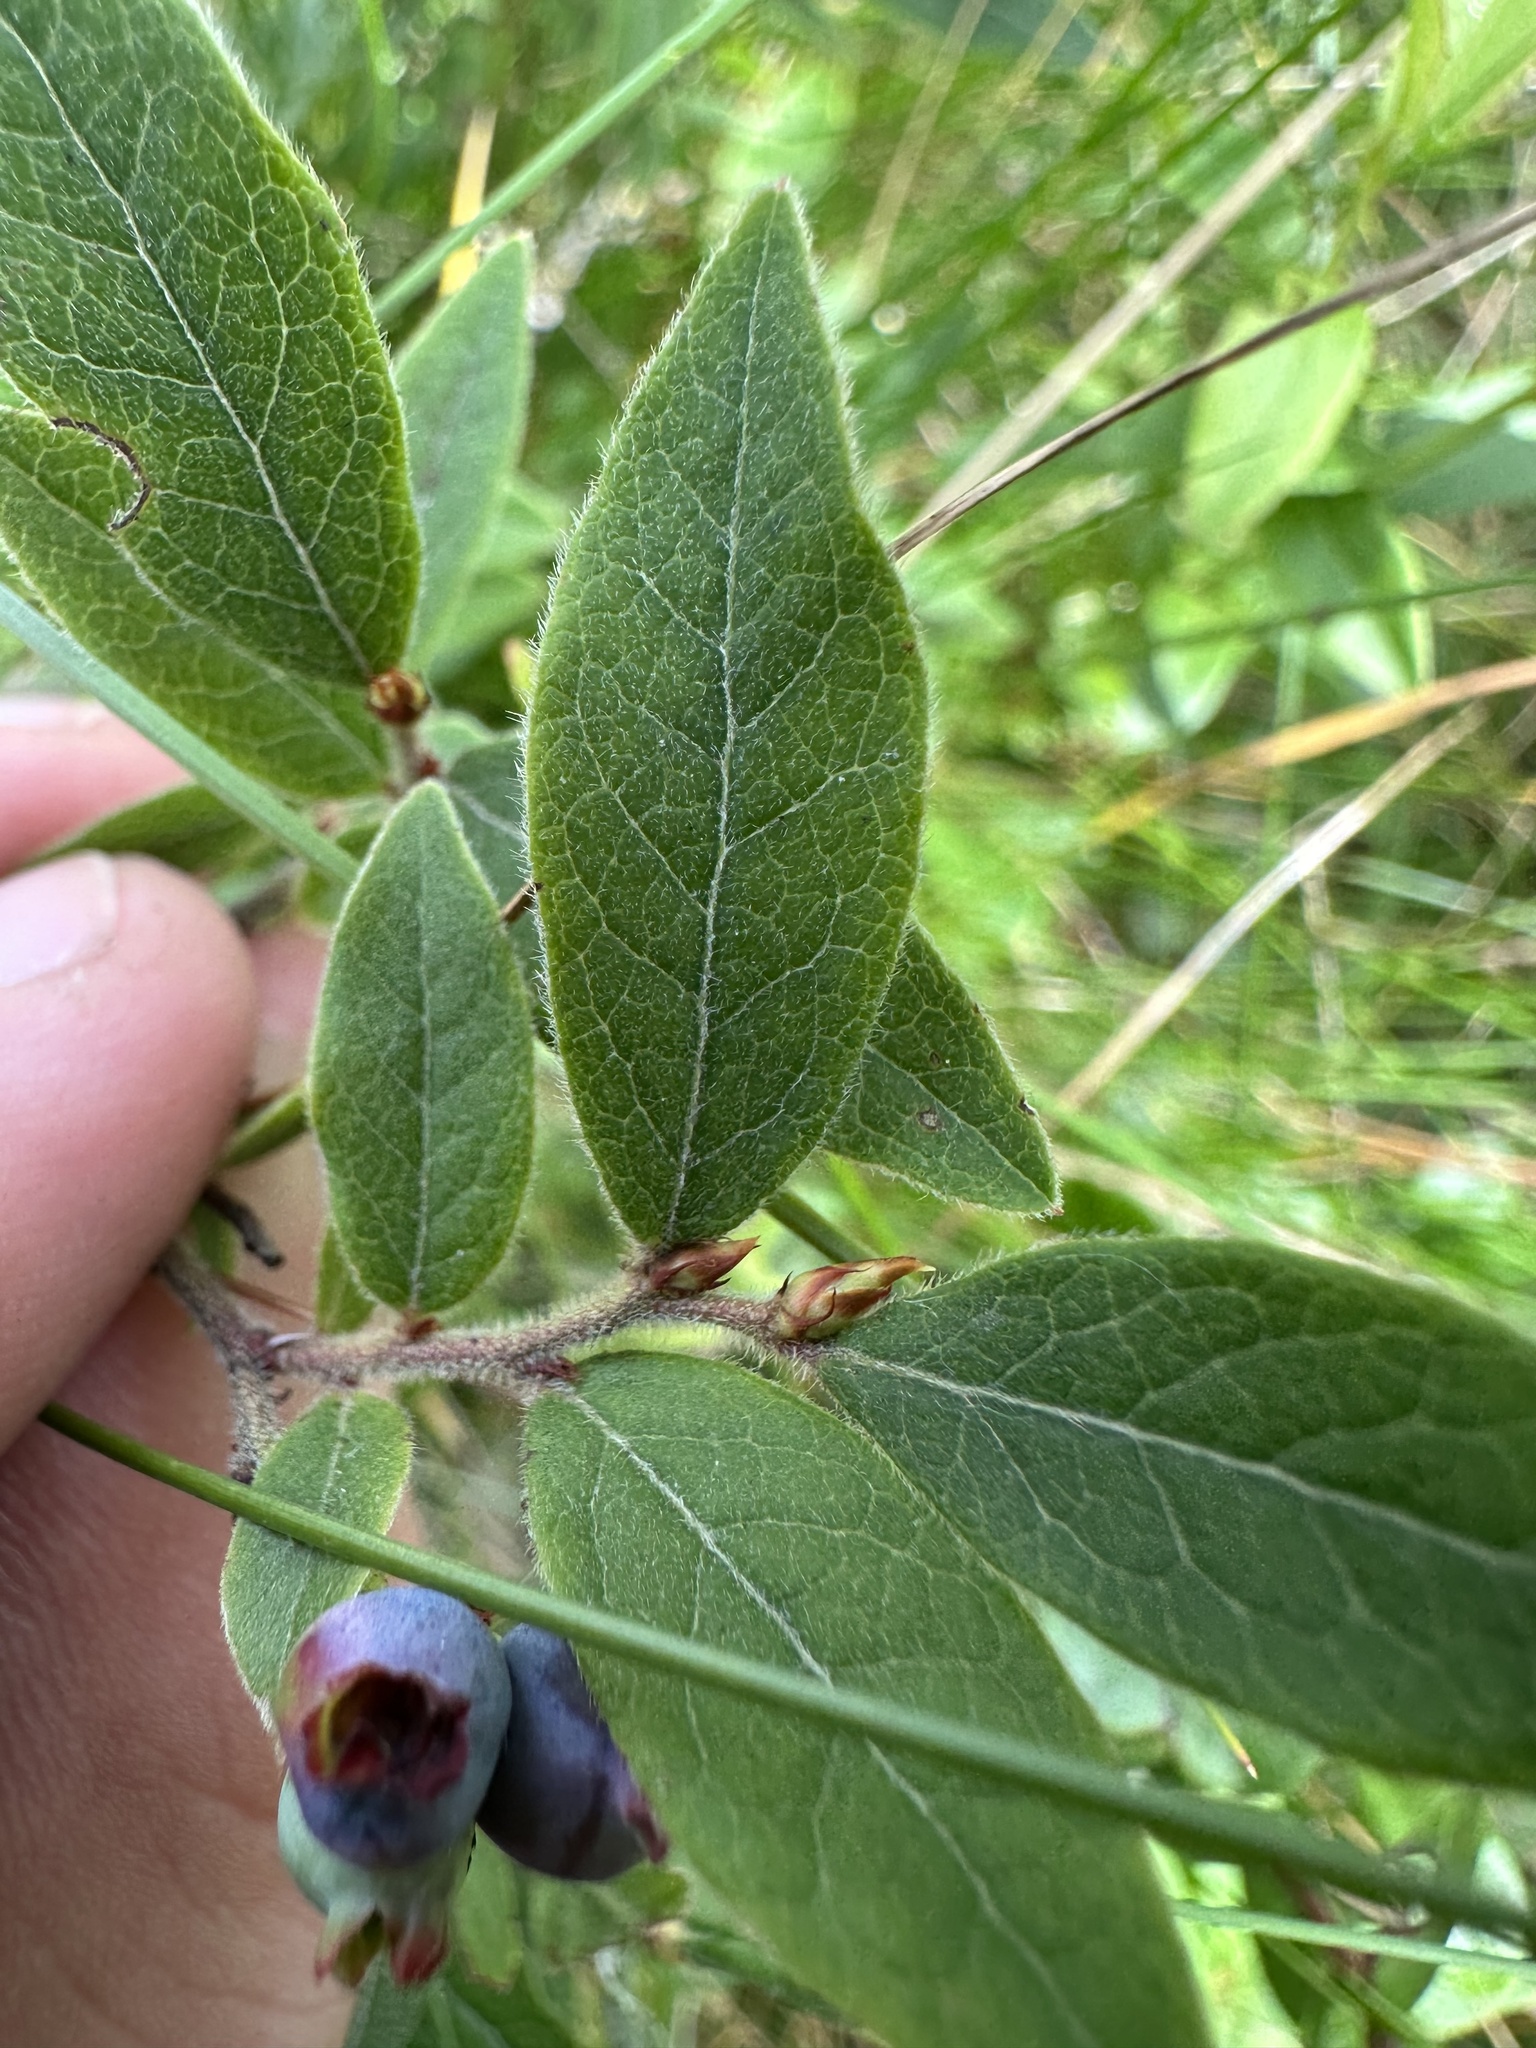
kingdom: Plantae
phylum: Tracheophyta
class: Magnoliopsida
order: Ericales
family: Ericaceae
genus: Vaccinium
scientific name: Vaccinium myrtilloides
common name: Canada blueberry
